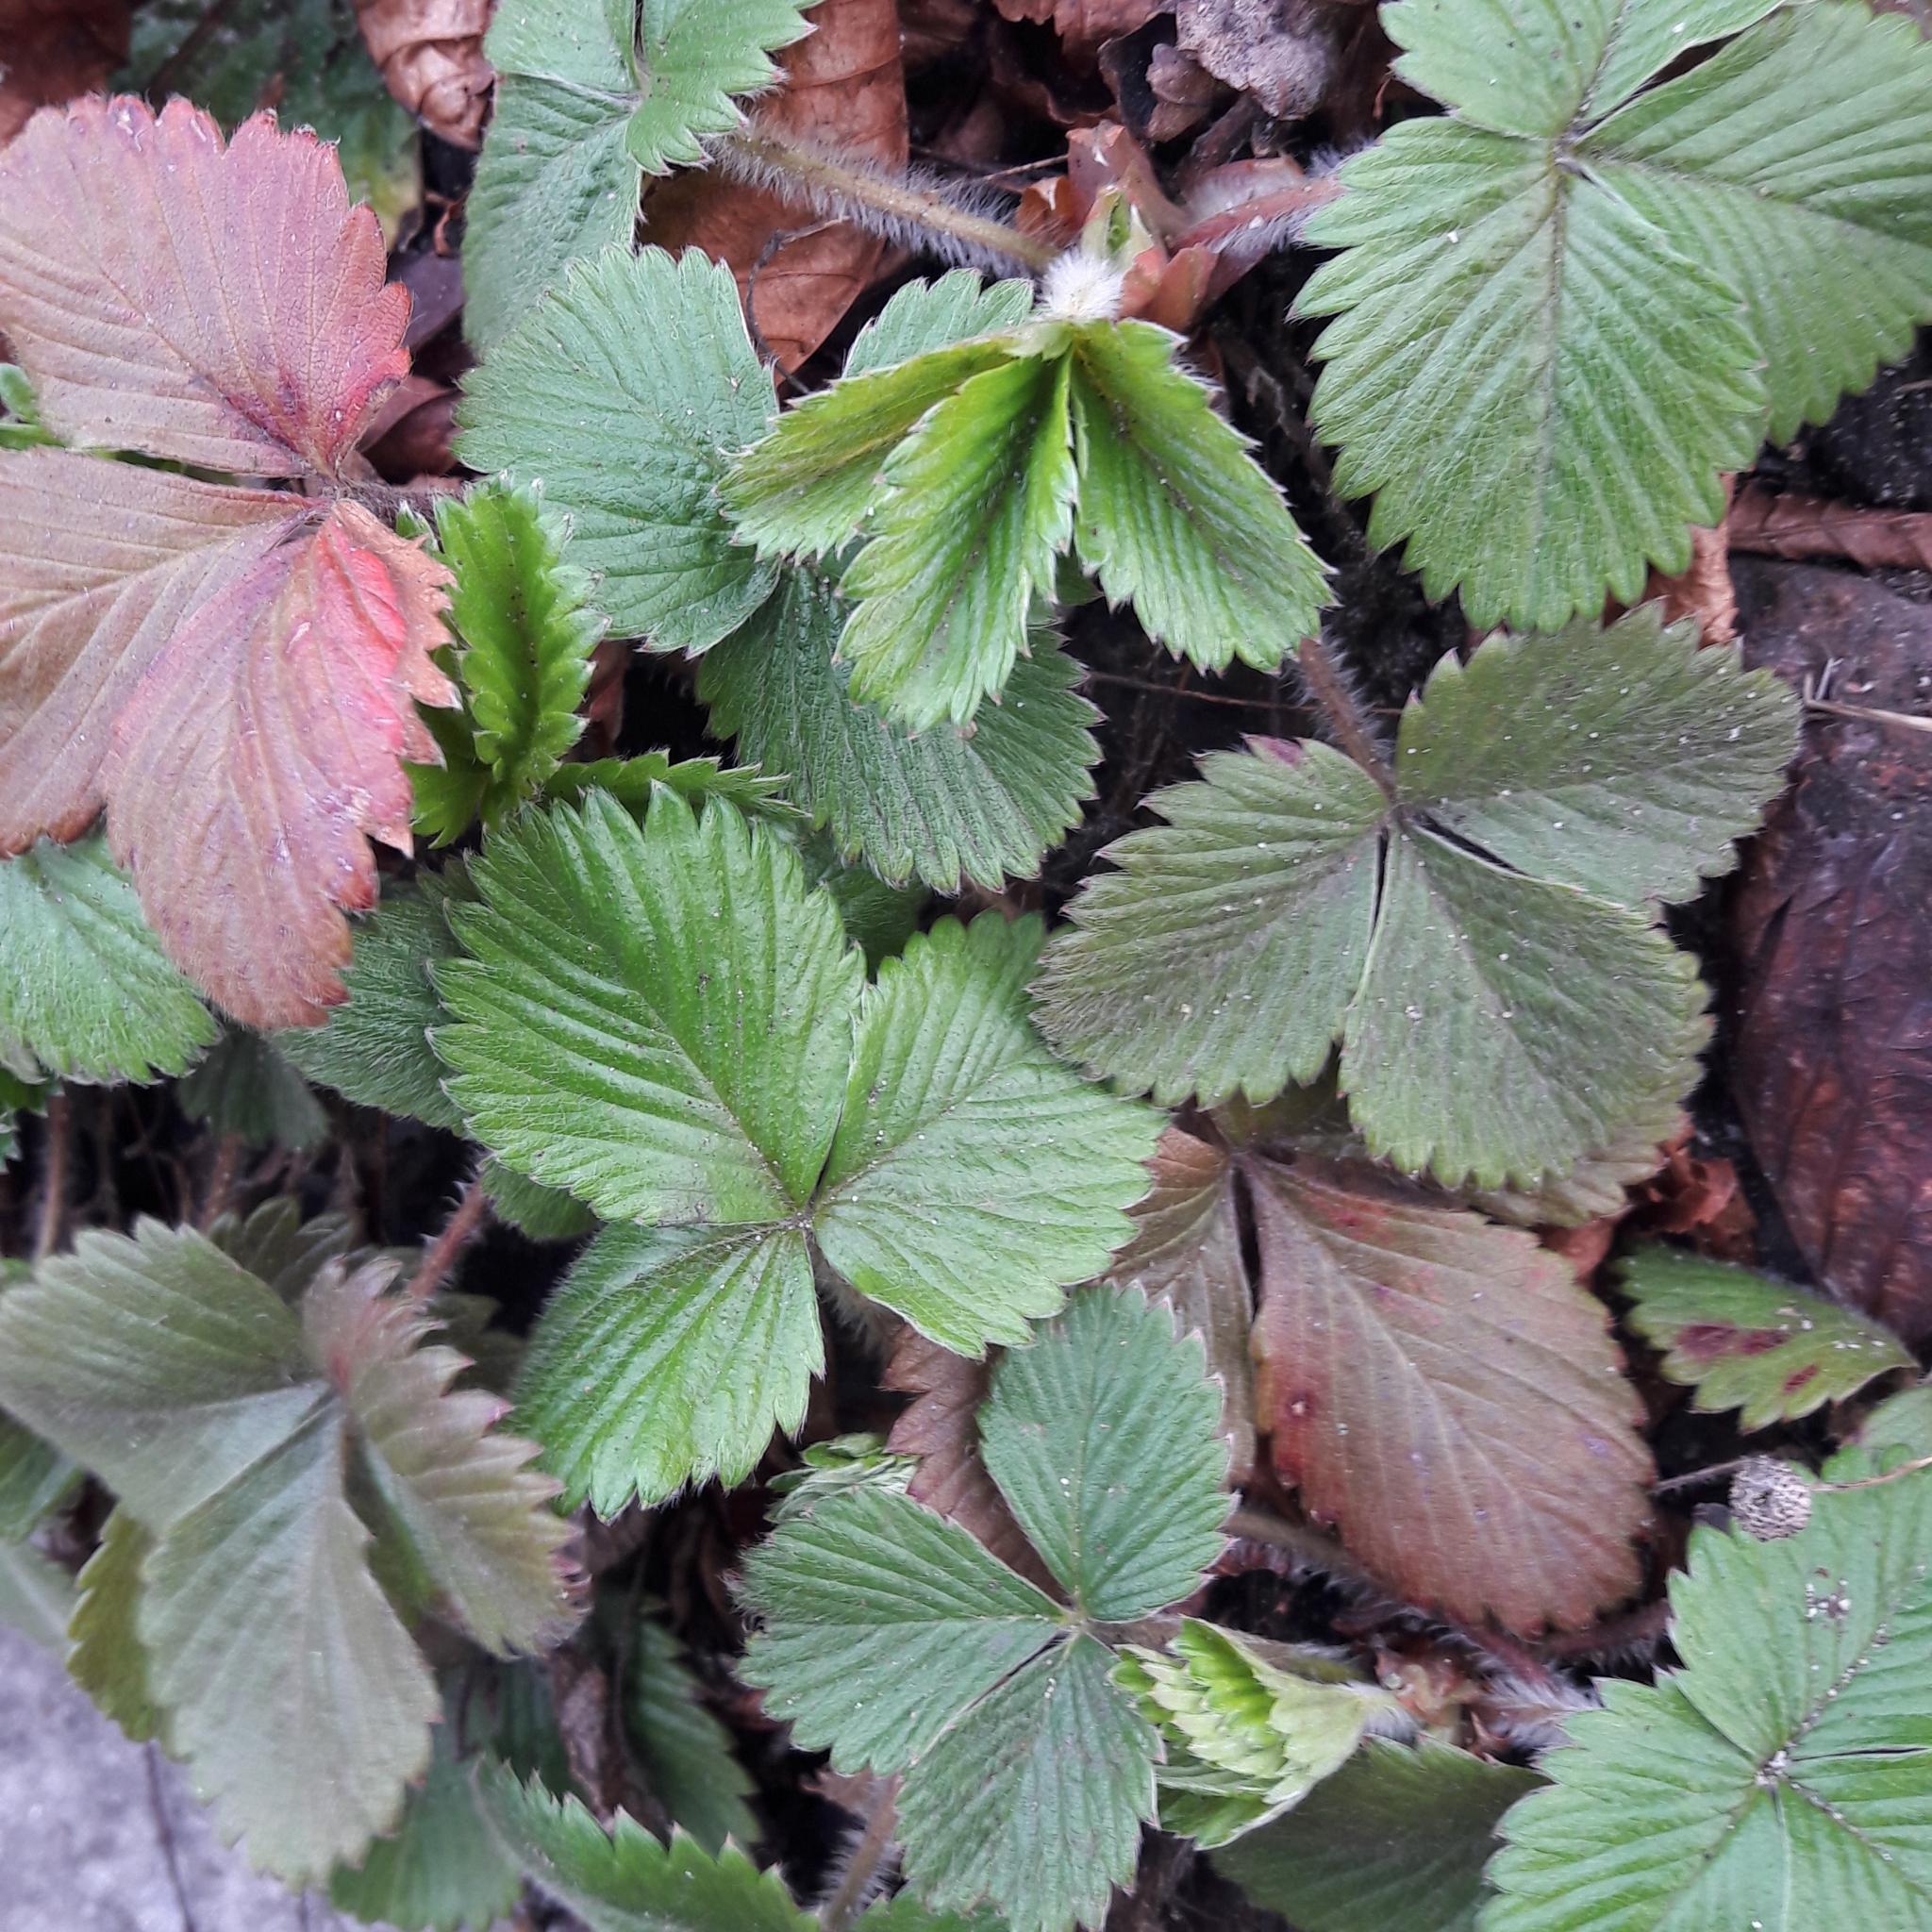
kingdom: Plantae
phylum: Tracheophyta
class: Magnoliopsida
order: Rosales
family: Rosaceae
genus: Fragaria
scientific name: Fragaria vesca
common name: Wild strawberry
